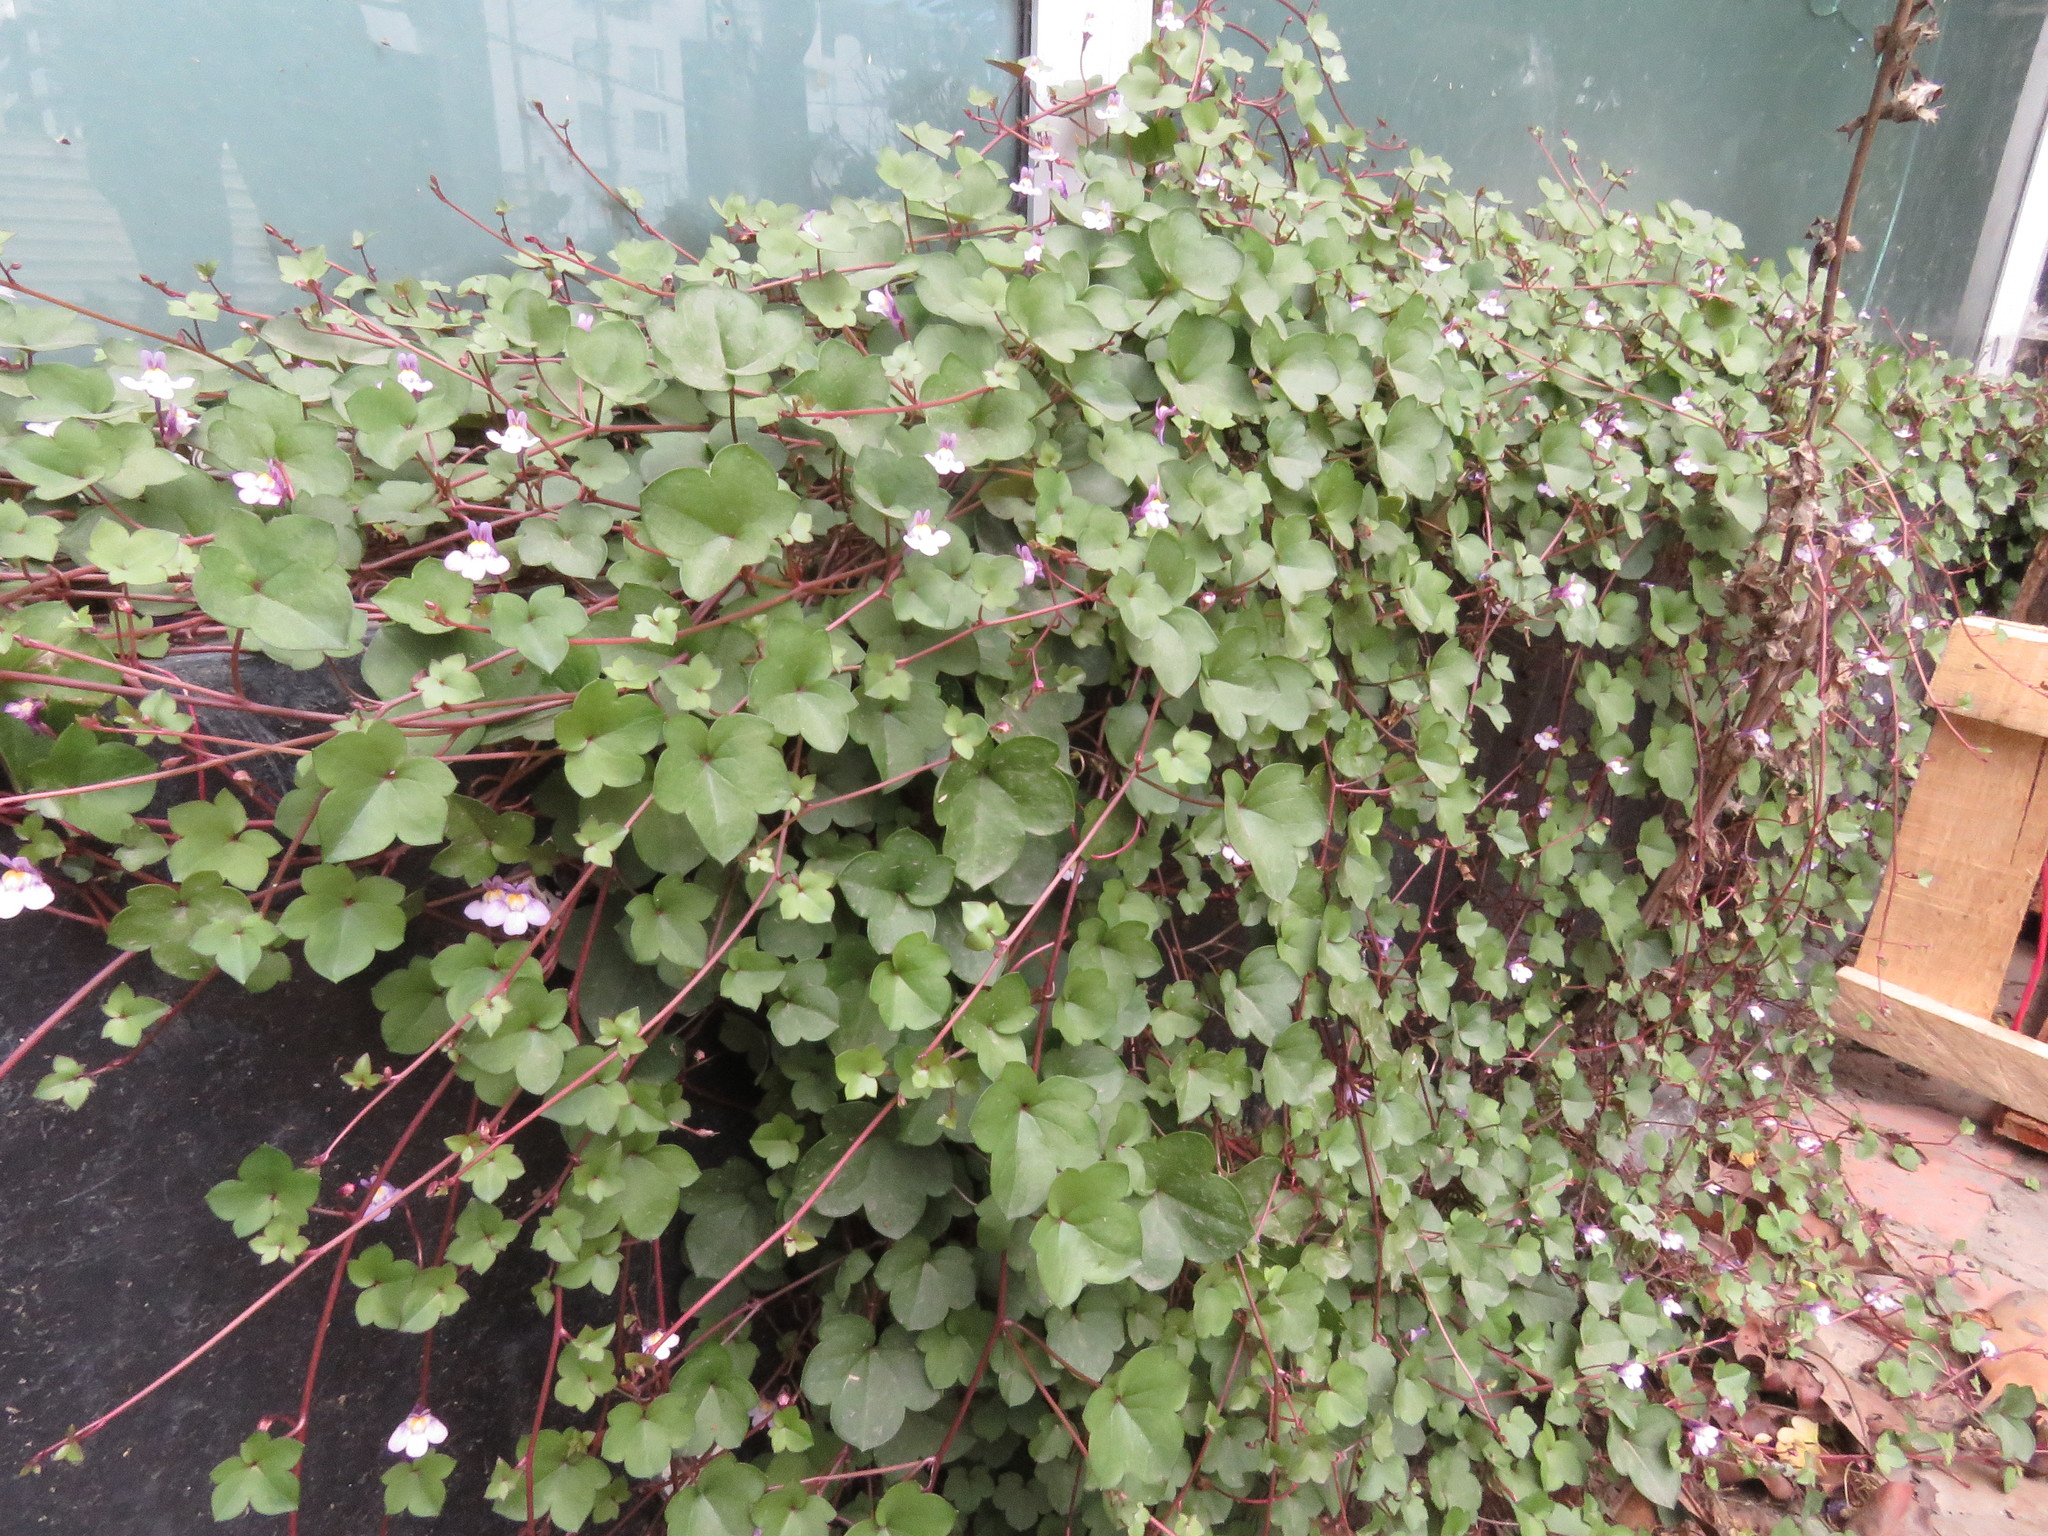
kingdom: Plantae
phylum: Tracheophyta
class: Magnoliopsida
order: Lamiales
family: Plantaginaceae
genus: Cymbalaria
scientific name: Cymbalaria muralis
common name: Ivy-leaved toadflax
